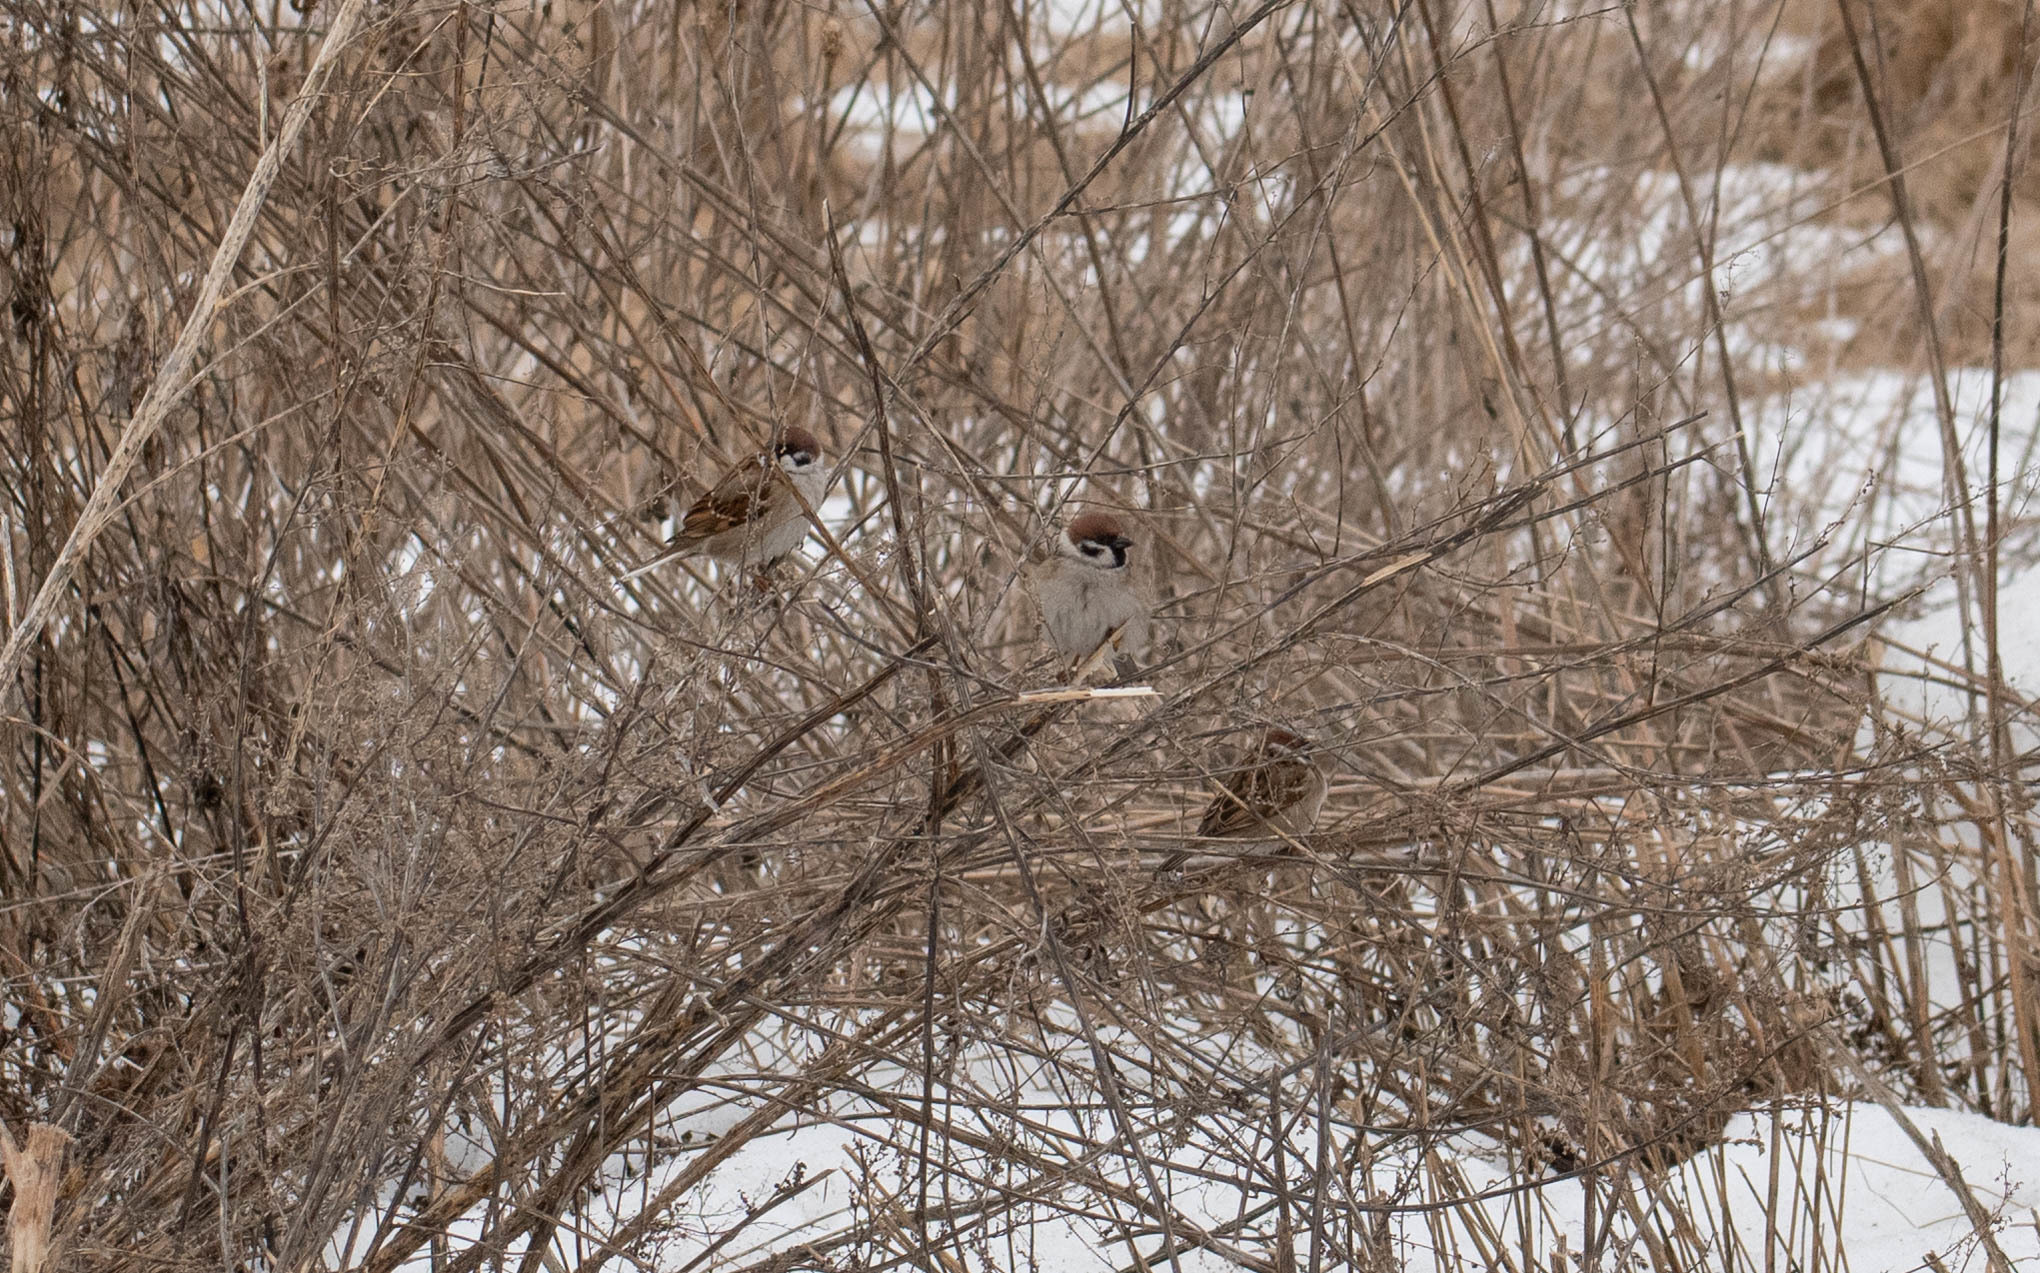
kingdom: Animalia
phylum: Chordata
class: Aves
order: Passeriformes
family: Passeridae
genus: Passer
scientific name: Passer montanus
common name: Eurasian tree sparrow
